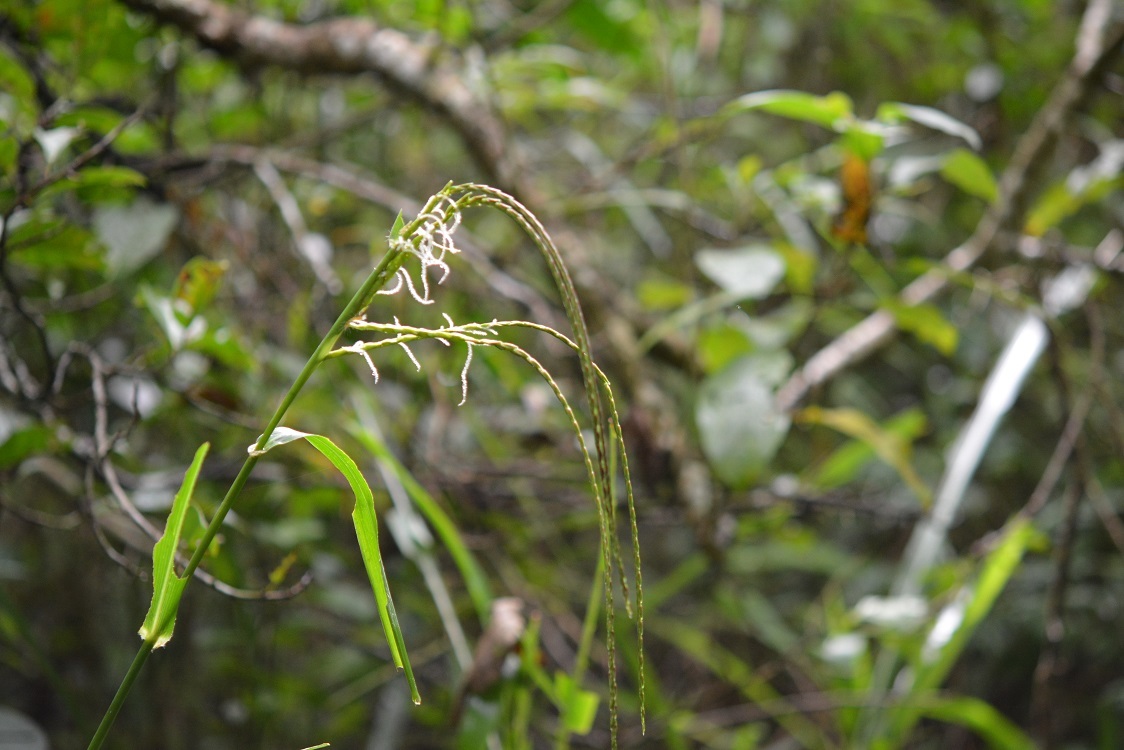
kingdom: Plantae
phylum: Tracheophyta
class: Liliopsida
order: Poales
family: Poaceae
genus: Tripsacum
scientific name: Tripsacum jalapense
